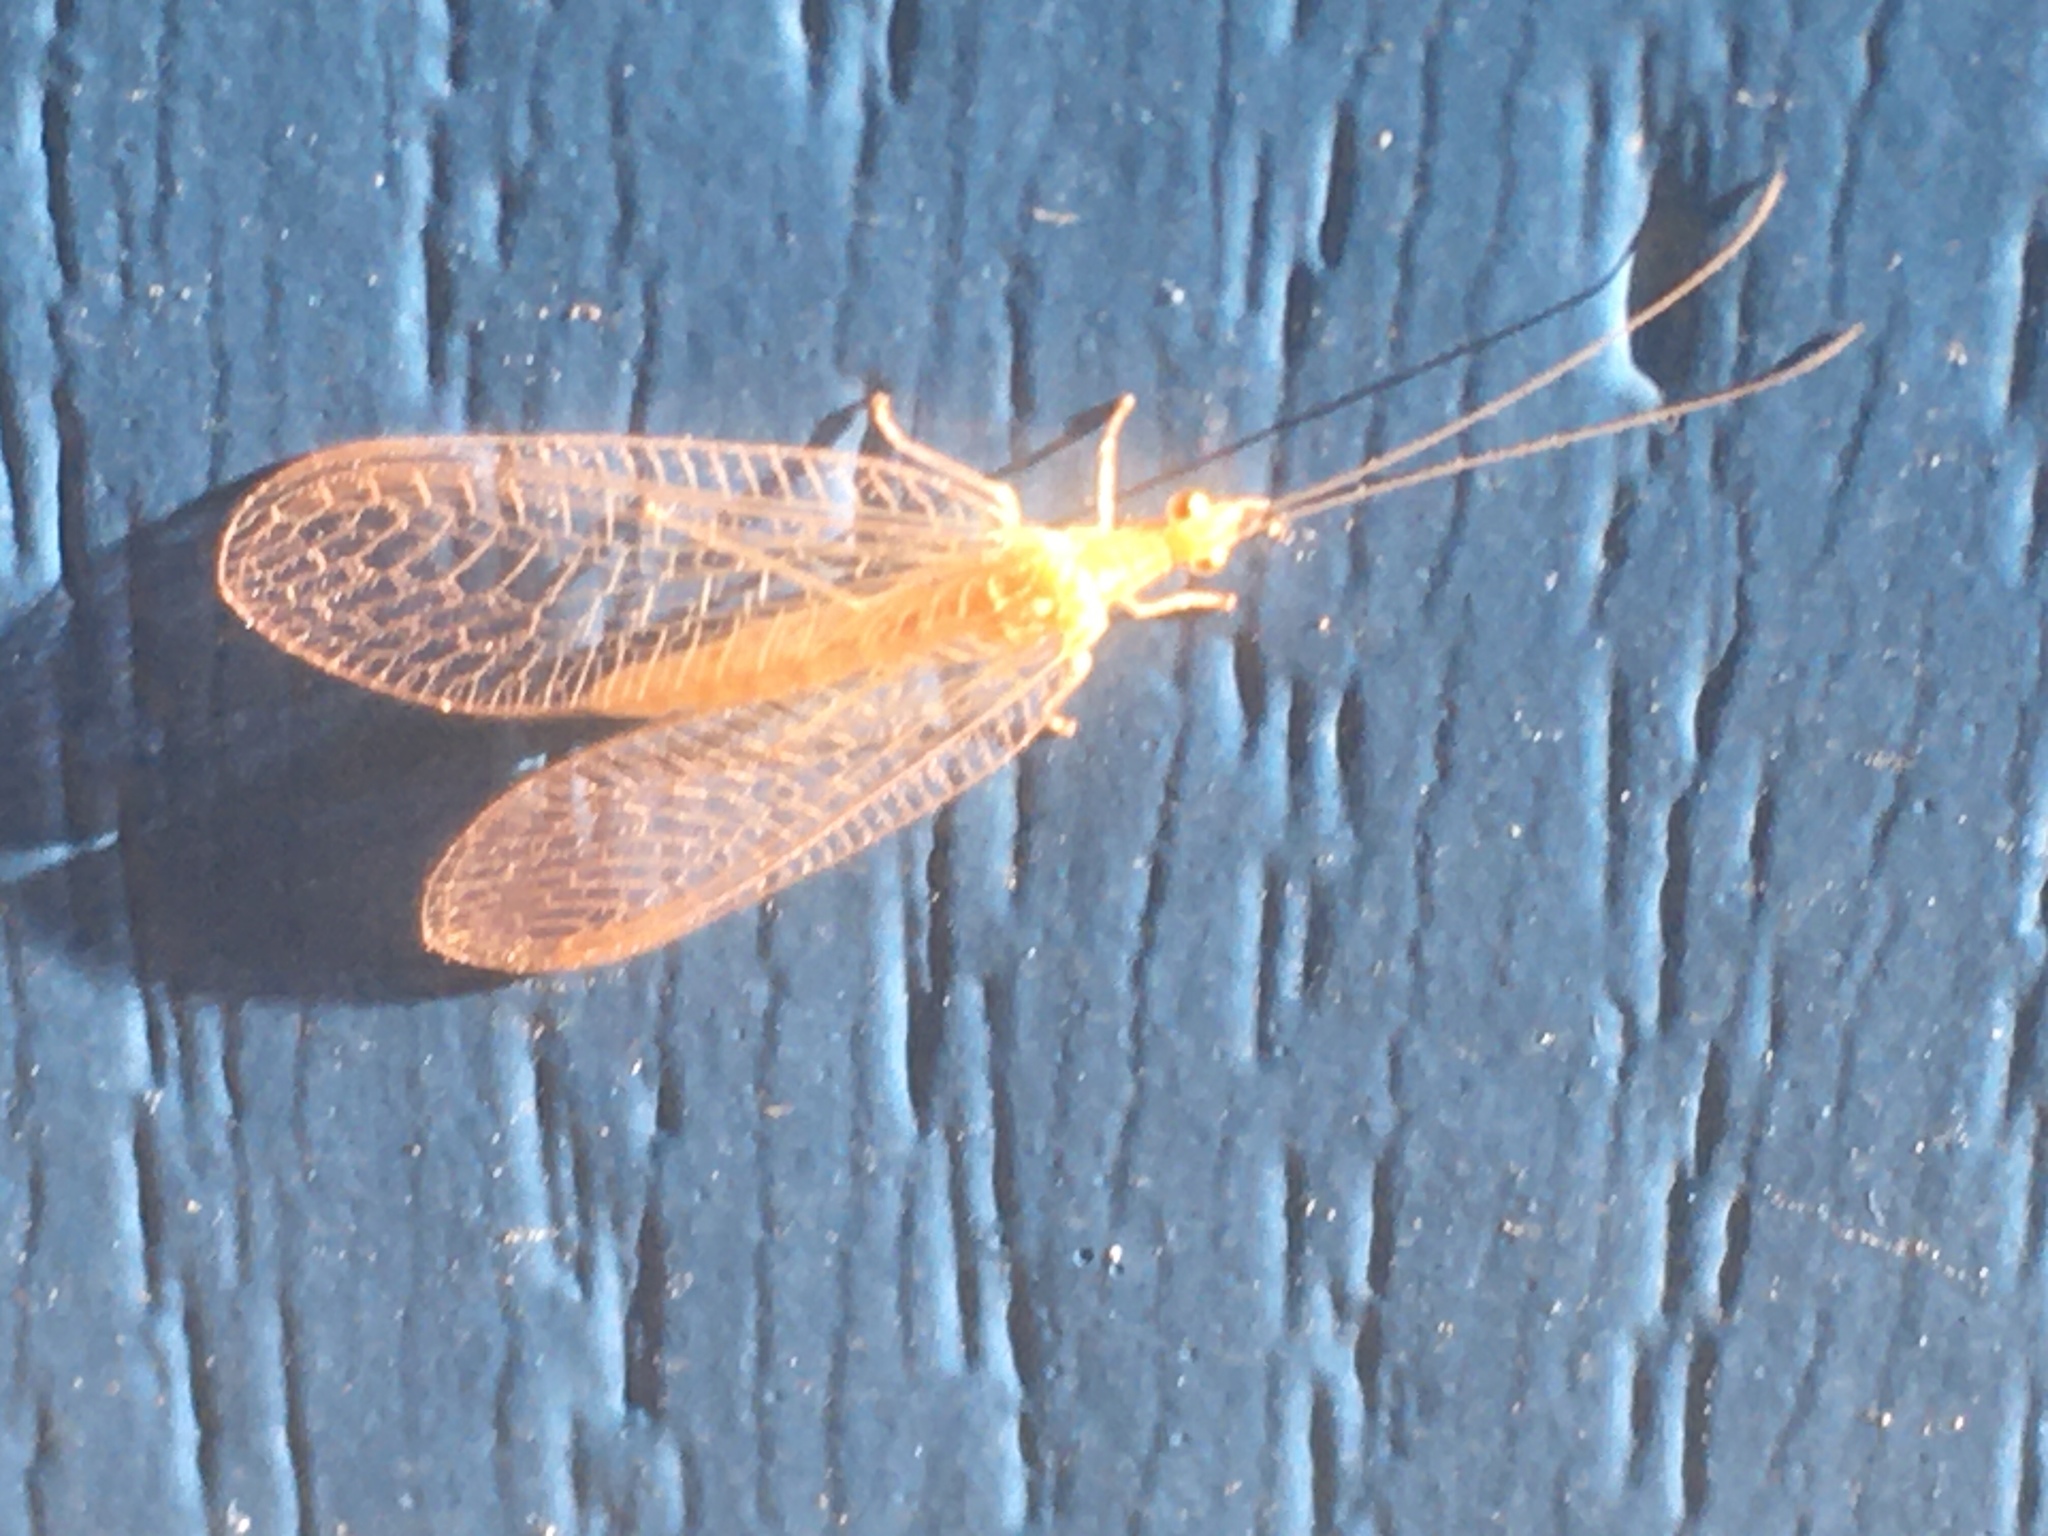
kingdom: Animalia
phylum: Arthropoda
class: Insecta
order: Neuroptera
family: Chrysopidae
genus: Chrysoperla
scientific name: Chrysoperla
